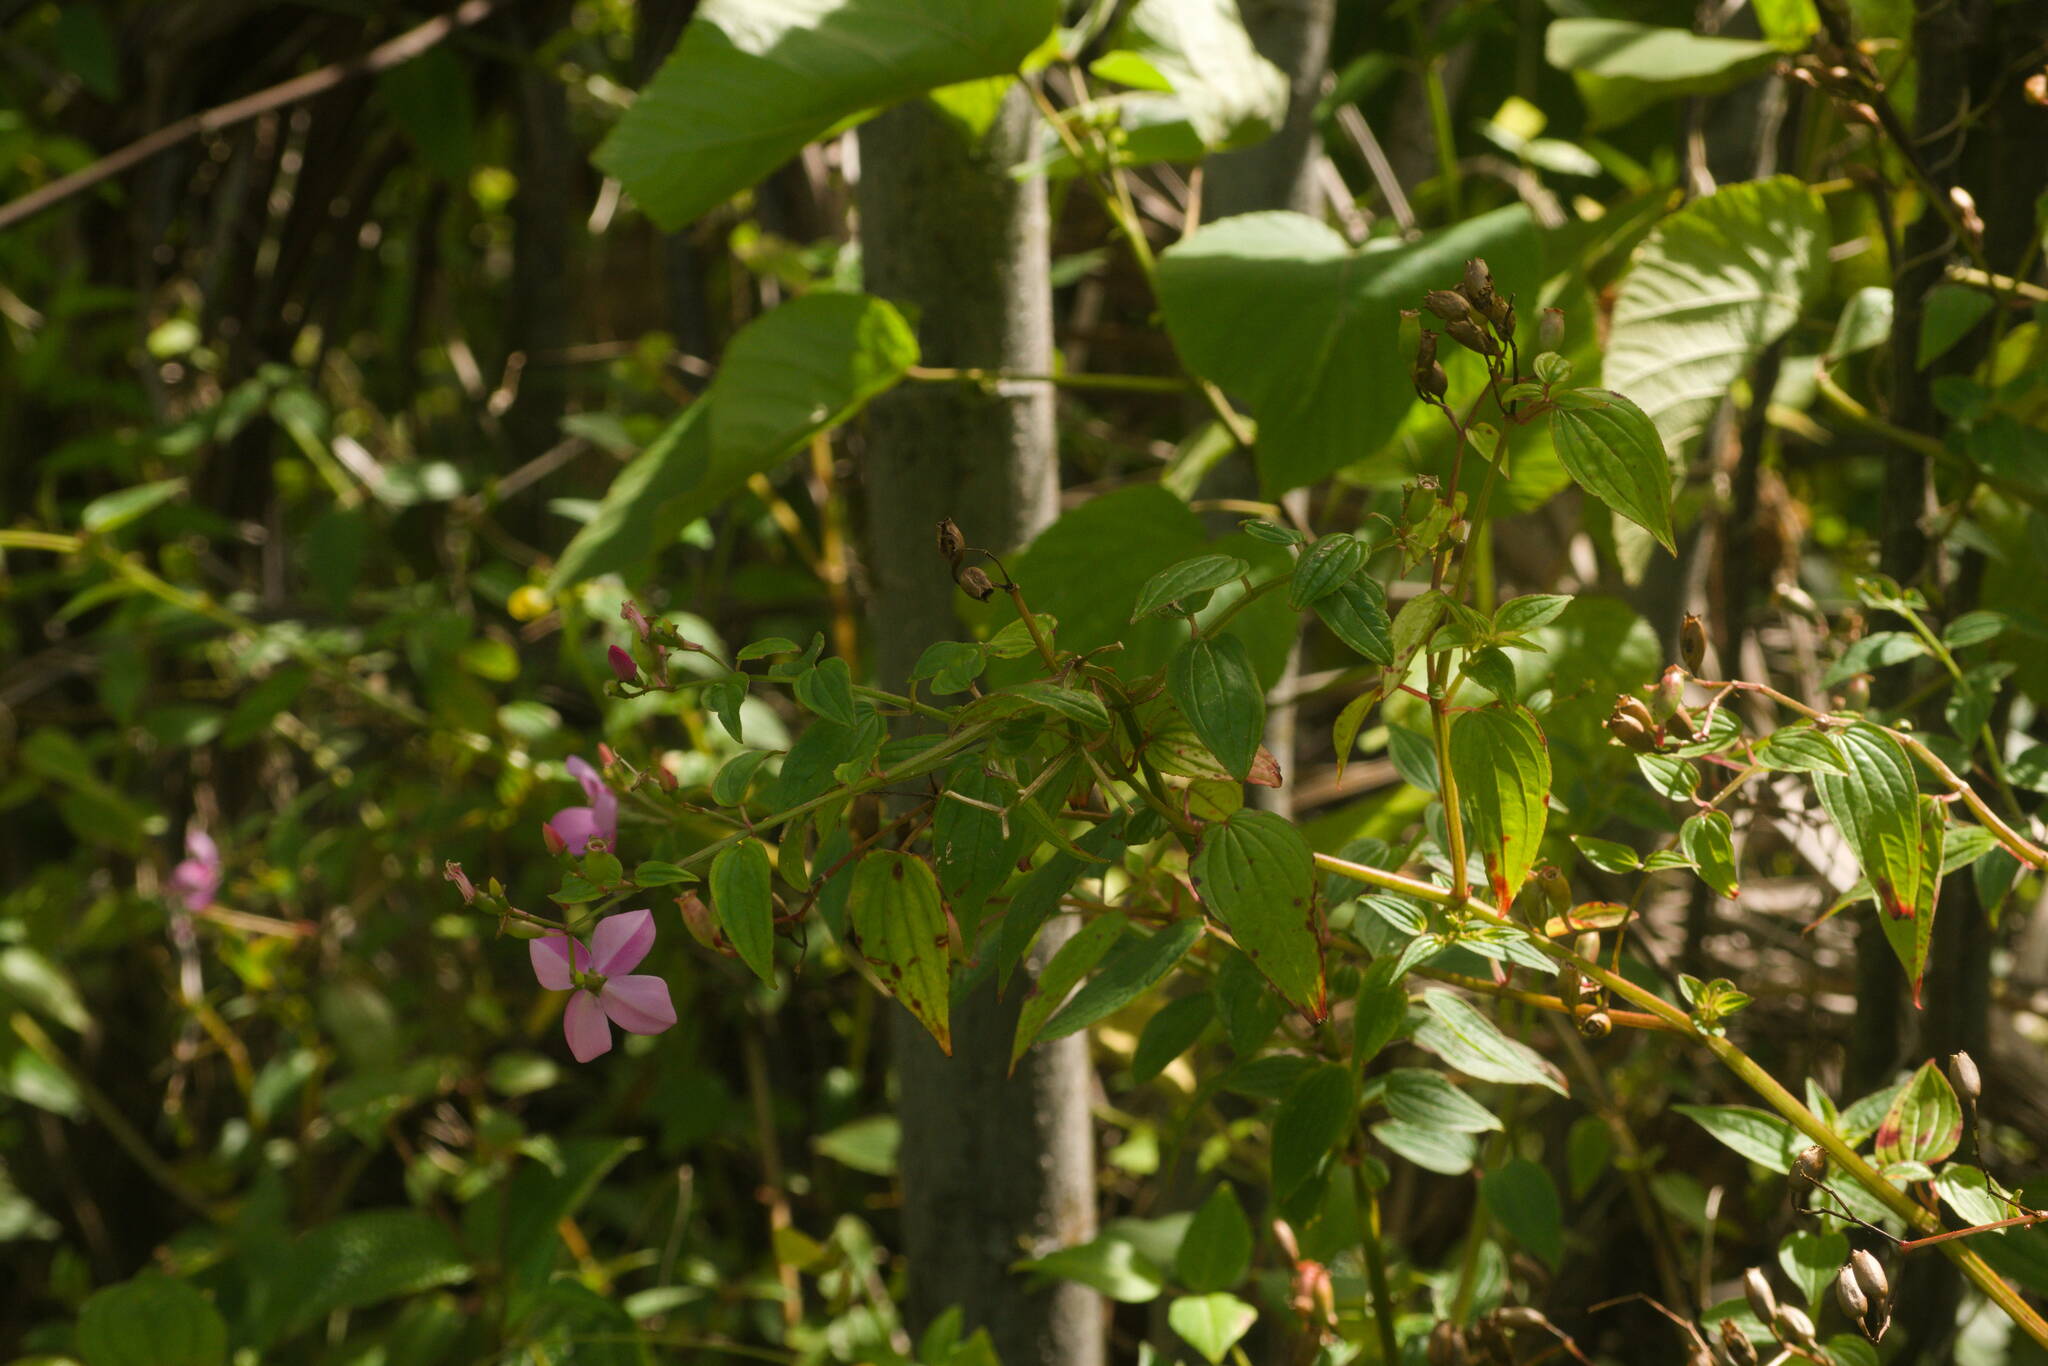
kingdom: Plantae
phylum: Tracheophyta
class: Magnoliopsida
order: Myrtales
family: Melastomataceae
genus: Arthrostemma
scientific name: Arthrostemma ciliatum
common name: Everblooming eavender
